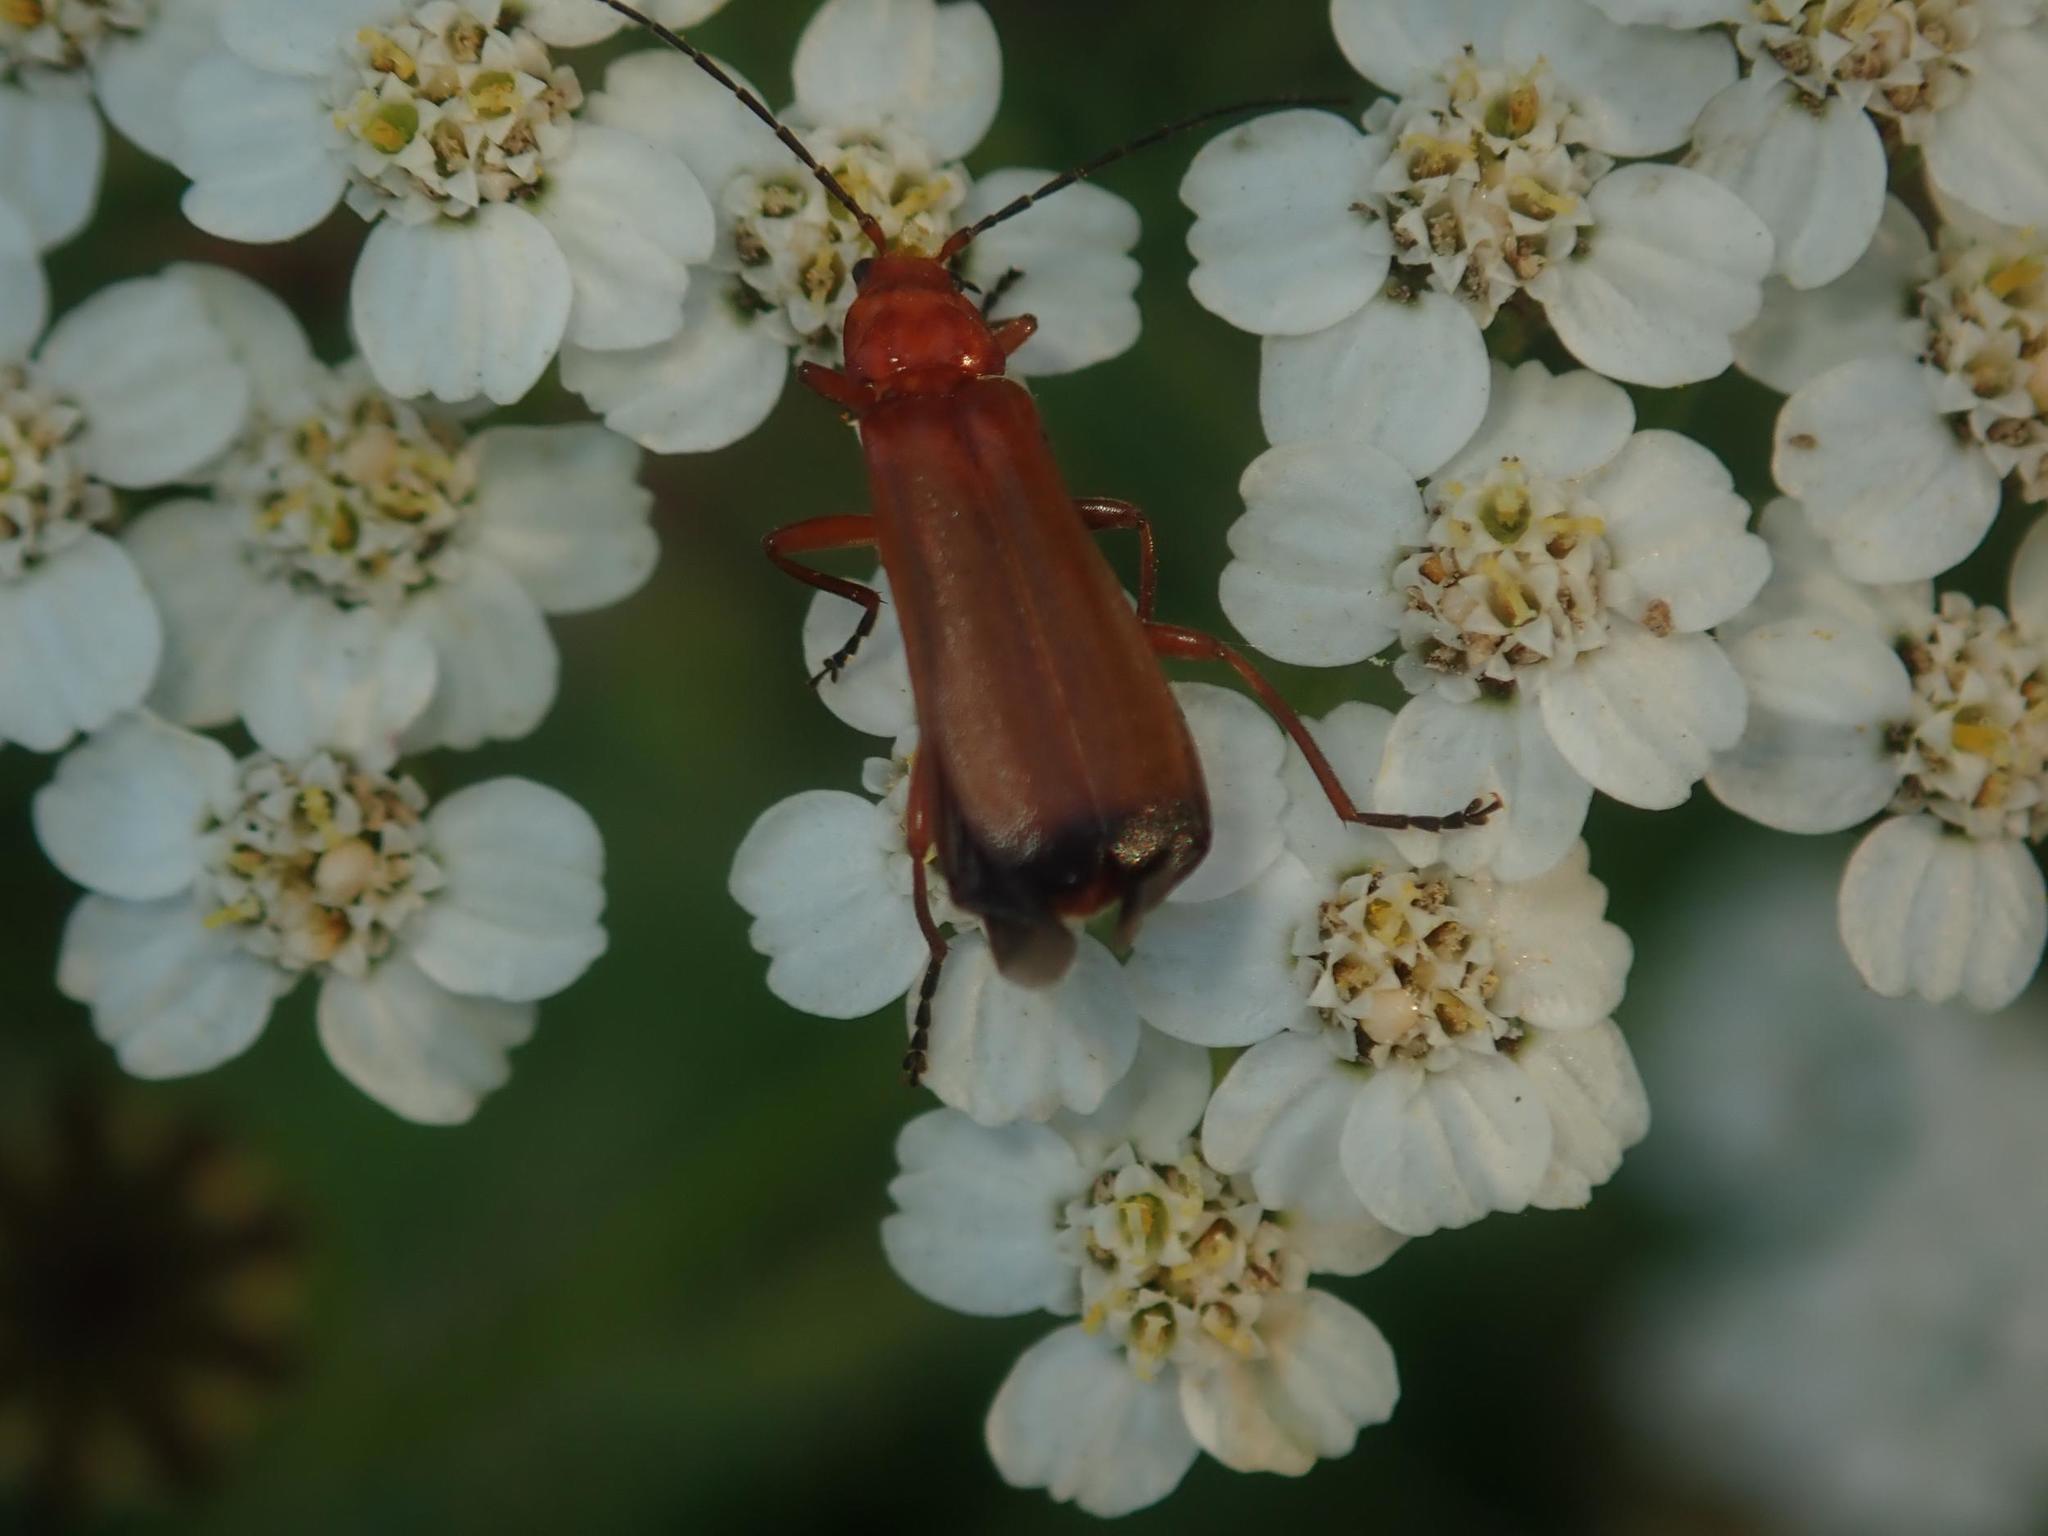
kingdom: Animalia
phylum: Arthropoda
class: Insecta
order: Coleoptera
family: Cantharidae
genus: Rhagonycha
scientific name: Rhagonycha fulva
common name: Common red soldier beetle
